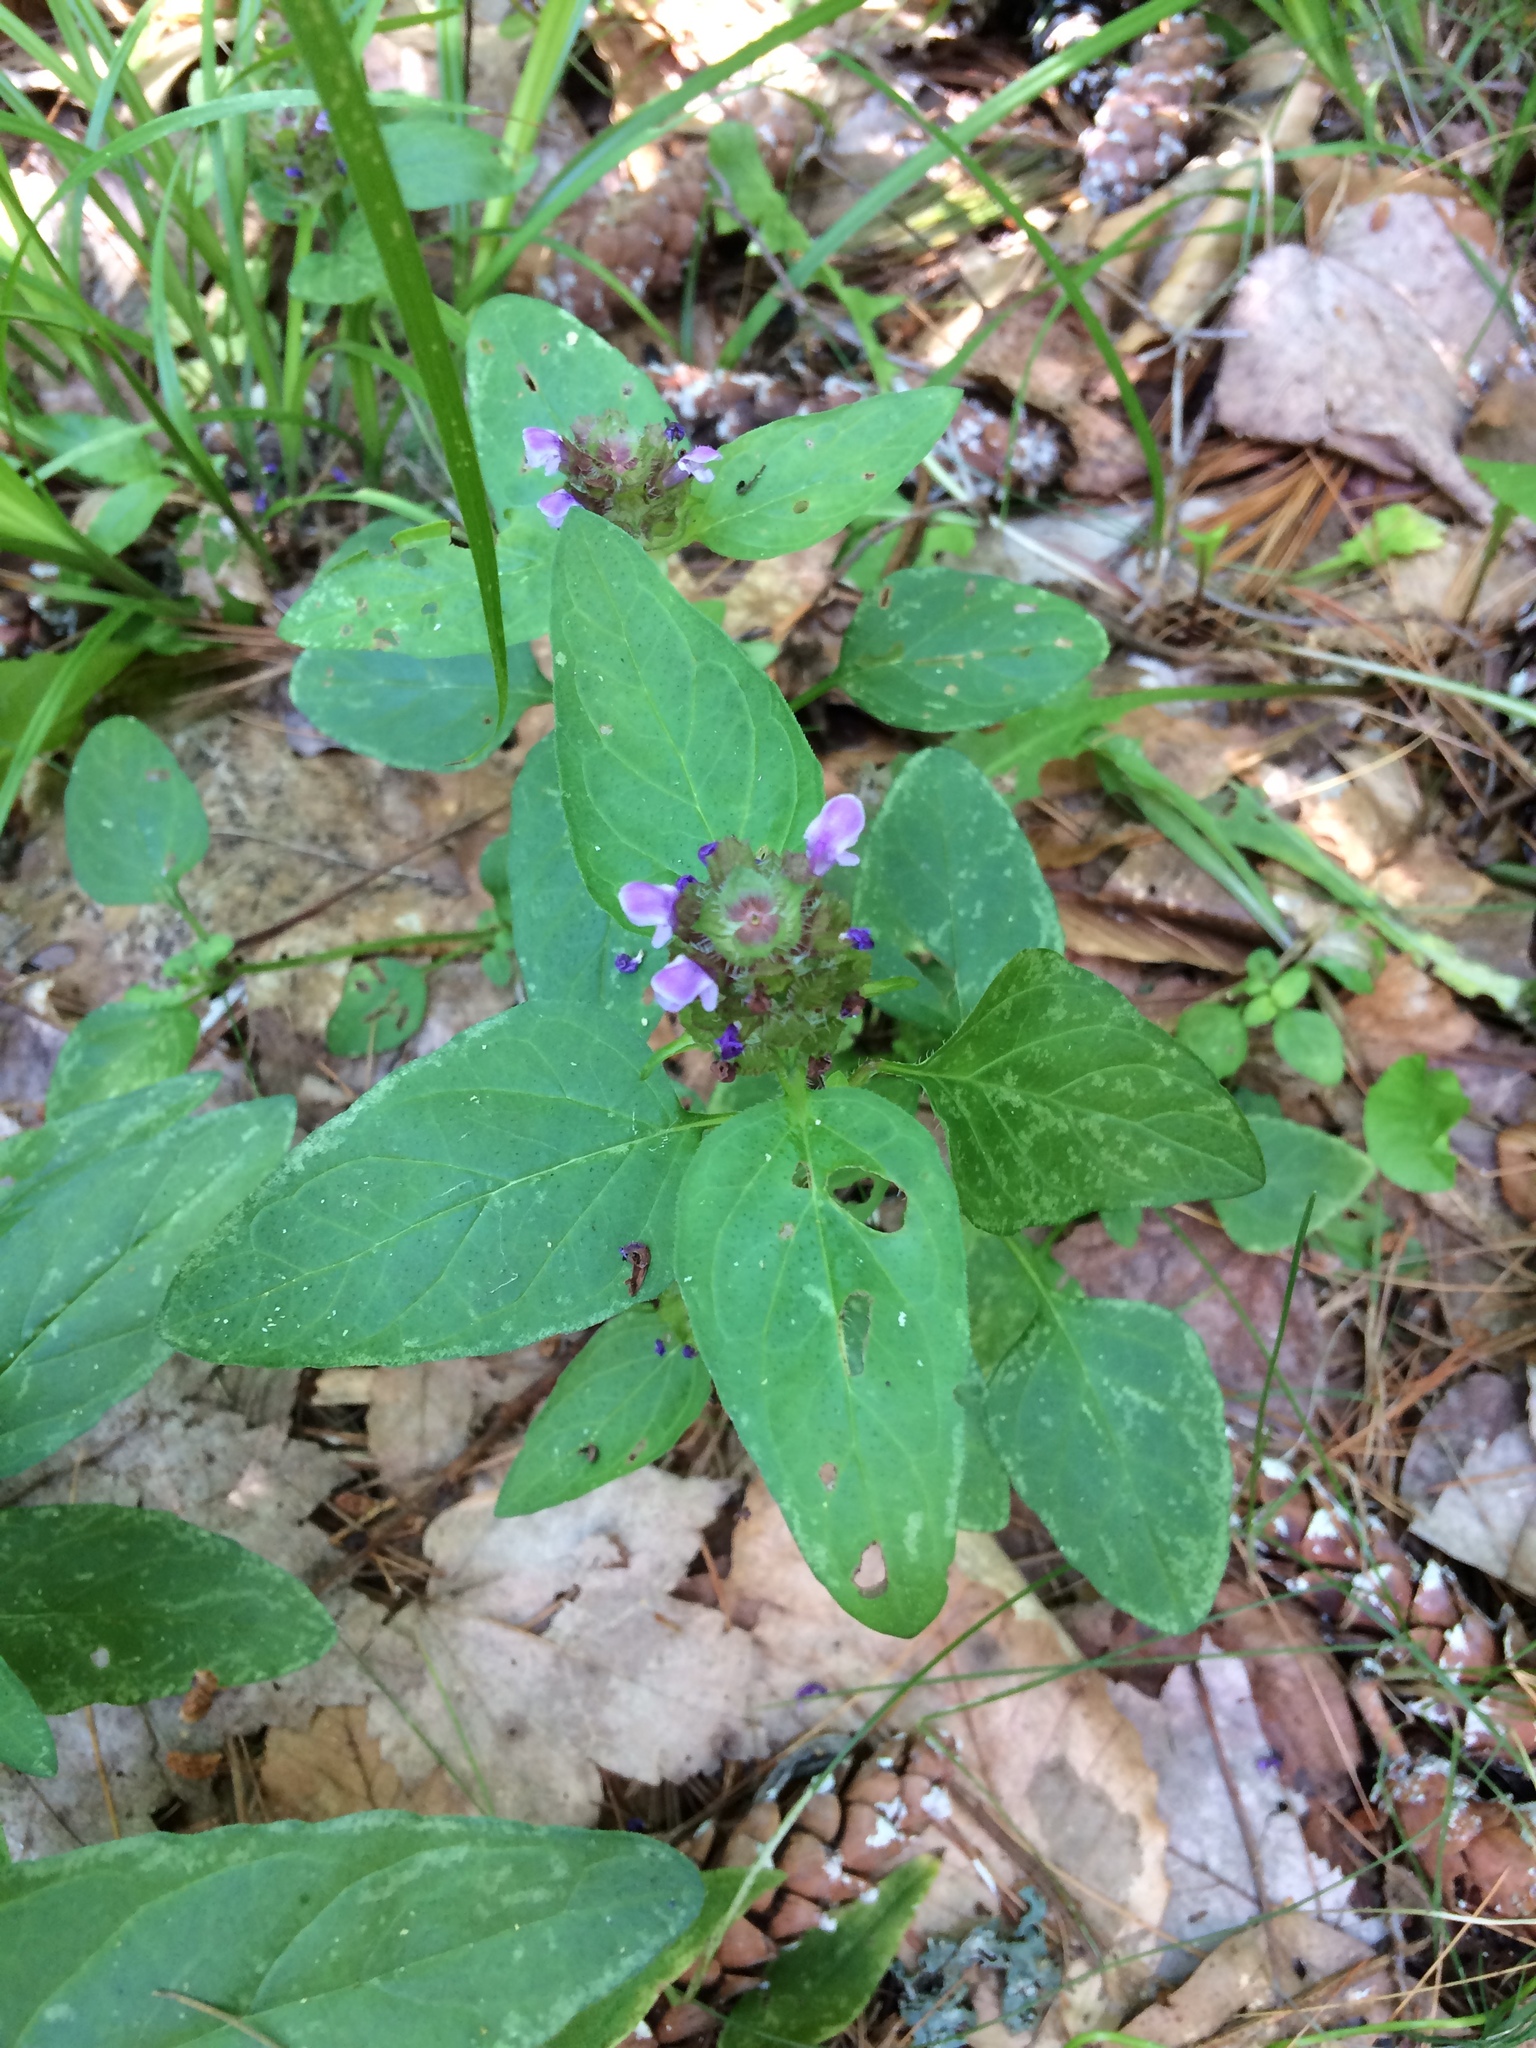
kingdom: Plantae
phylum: Tracheophyta
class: Magnoliopsida
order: Lamiales
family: Lamiaceae
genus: Prunella
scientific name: Prunella vulgaris
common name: Heal-all
